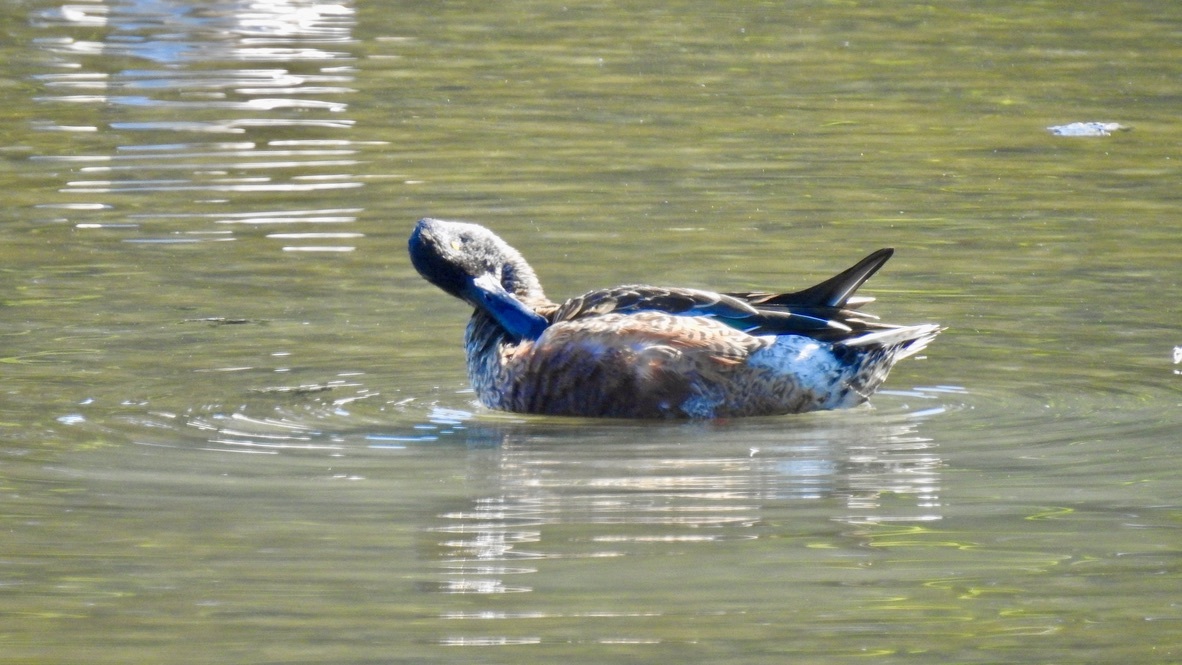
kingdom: Animalia
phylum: Chordata
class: Aves
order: Anseriformes
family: Anatidae
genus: Spatula
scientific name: Spatula clypeata
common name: Northern shoveler
